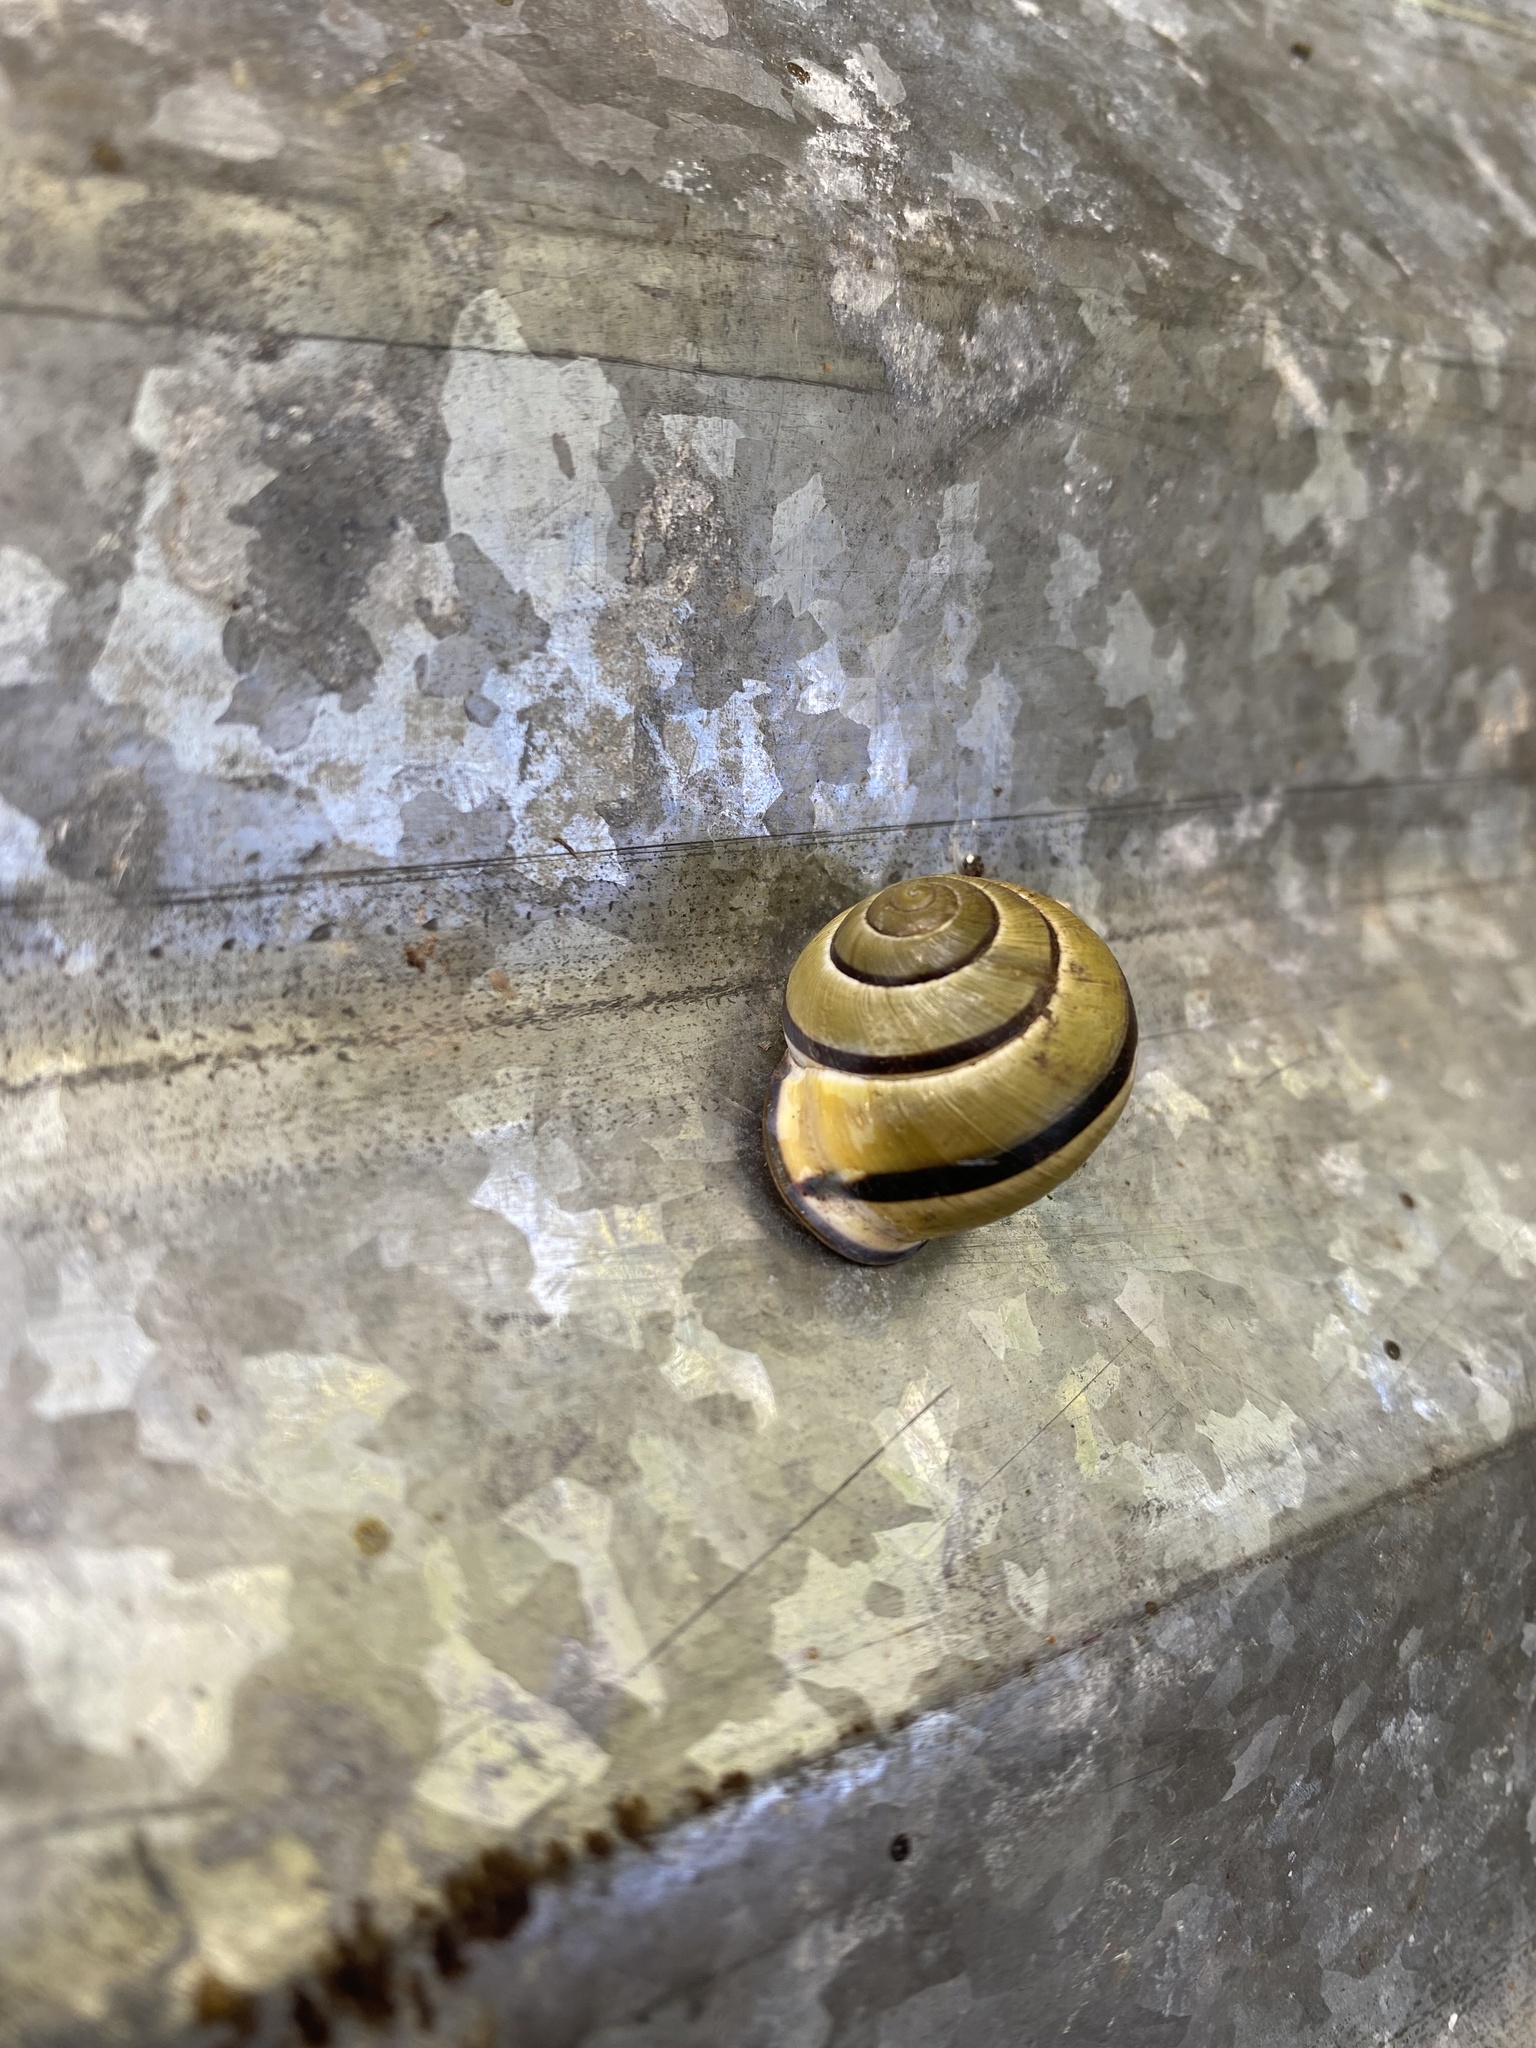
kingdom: Animalia
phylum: Mollusca
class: Gastropoda
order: Stylommatophora
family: Helicidae
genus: Cepaea
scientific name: Cepaea nemoralis
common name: Grovesnail
